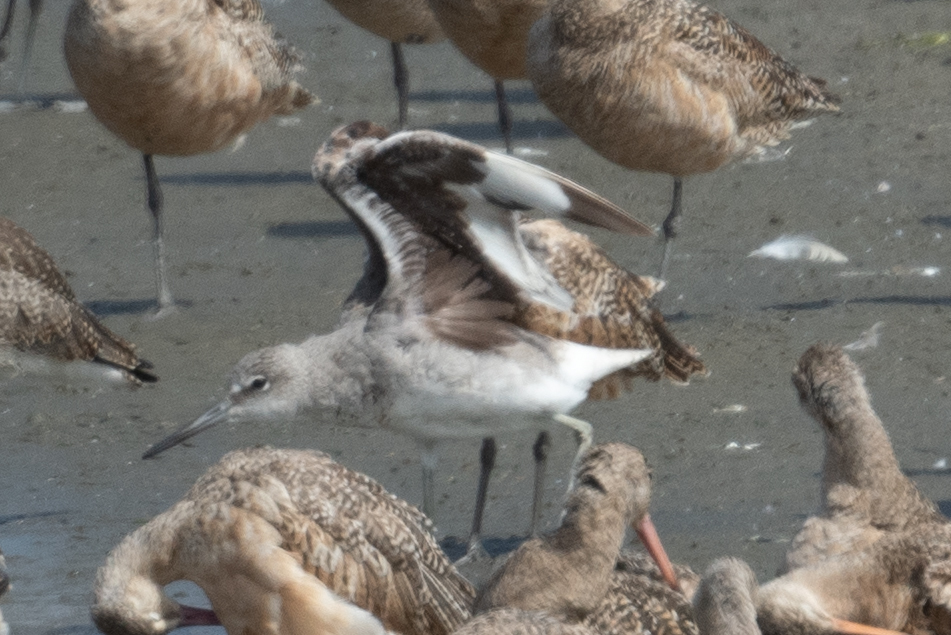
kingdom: Animalia
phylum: Chordata
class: Aves
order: Charadriiformes
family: Scolopacidae
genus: Tringa
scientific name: Tringa semipalmata
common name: Willet
